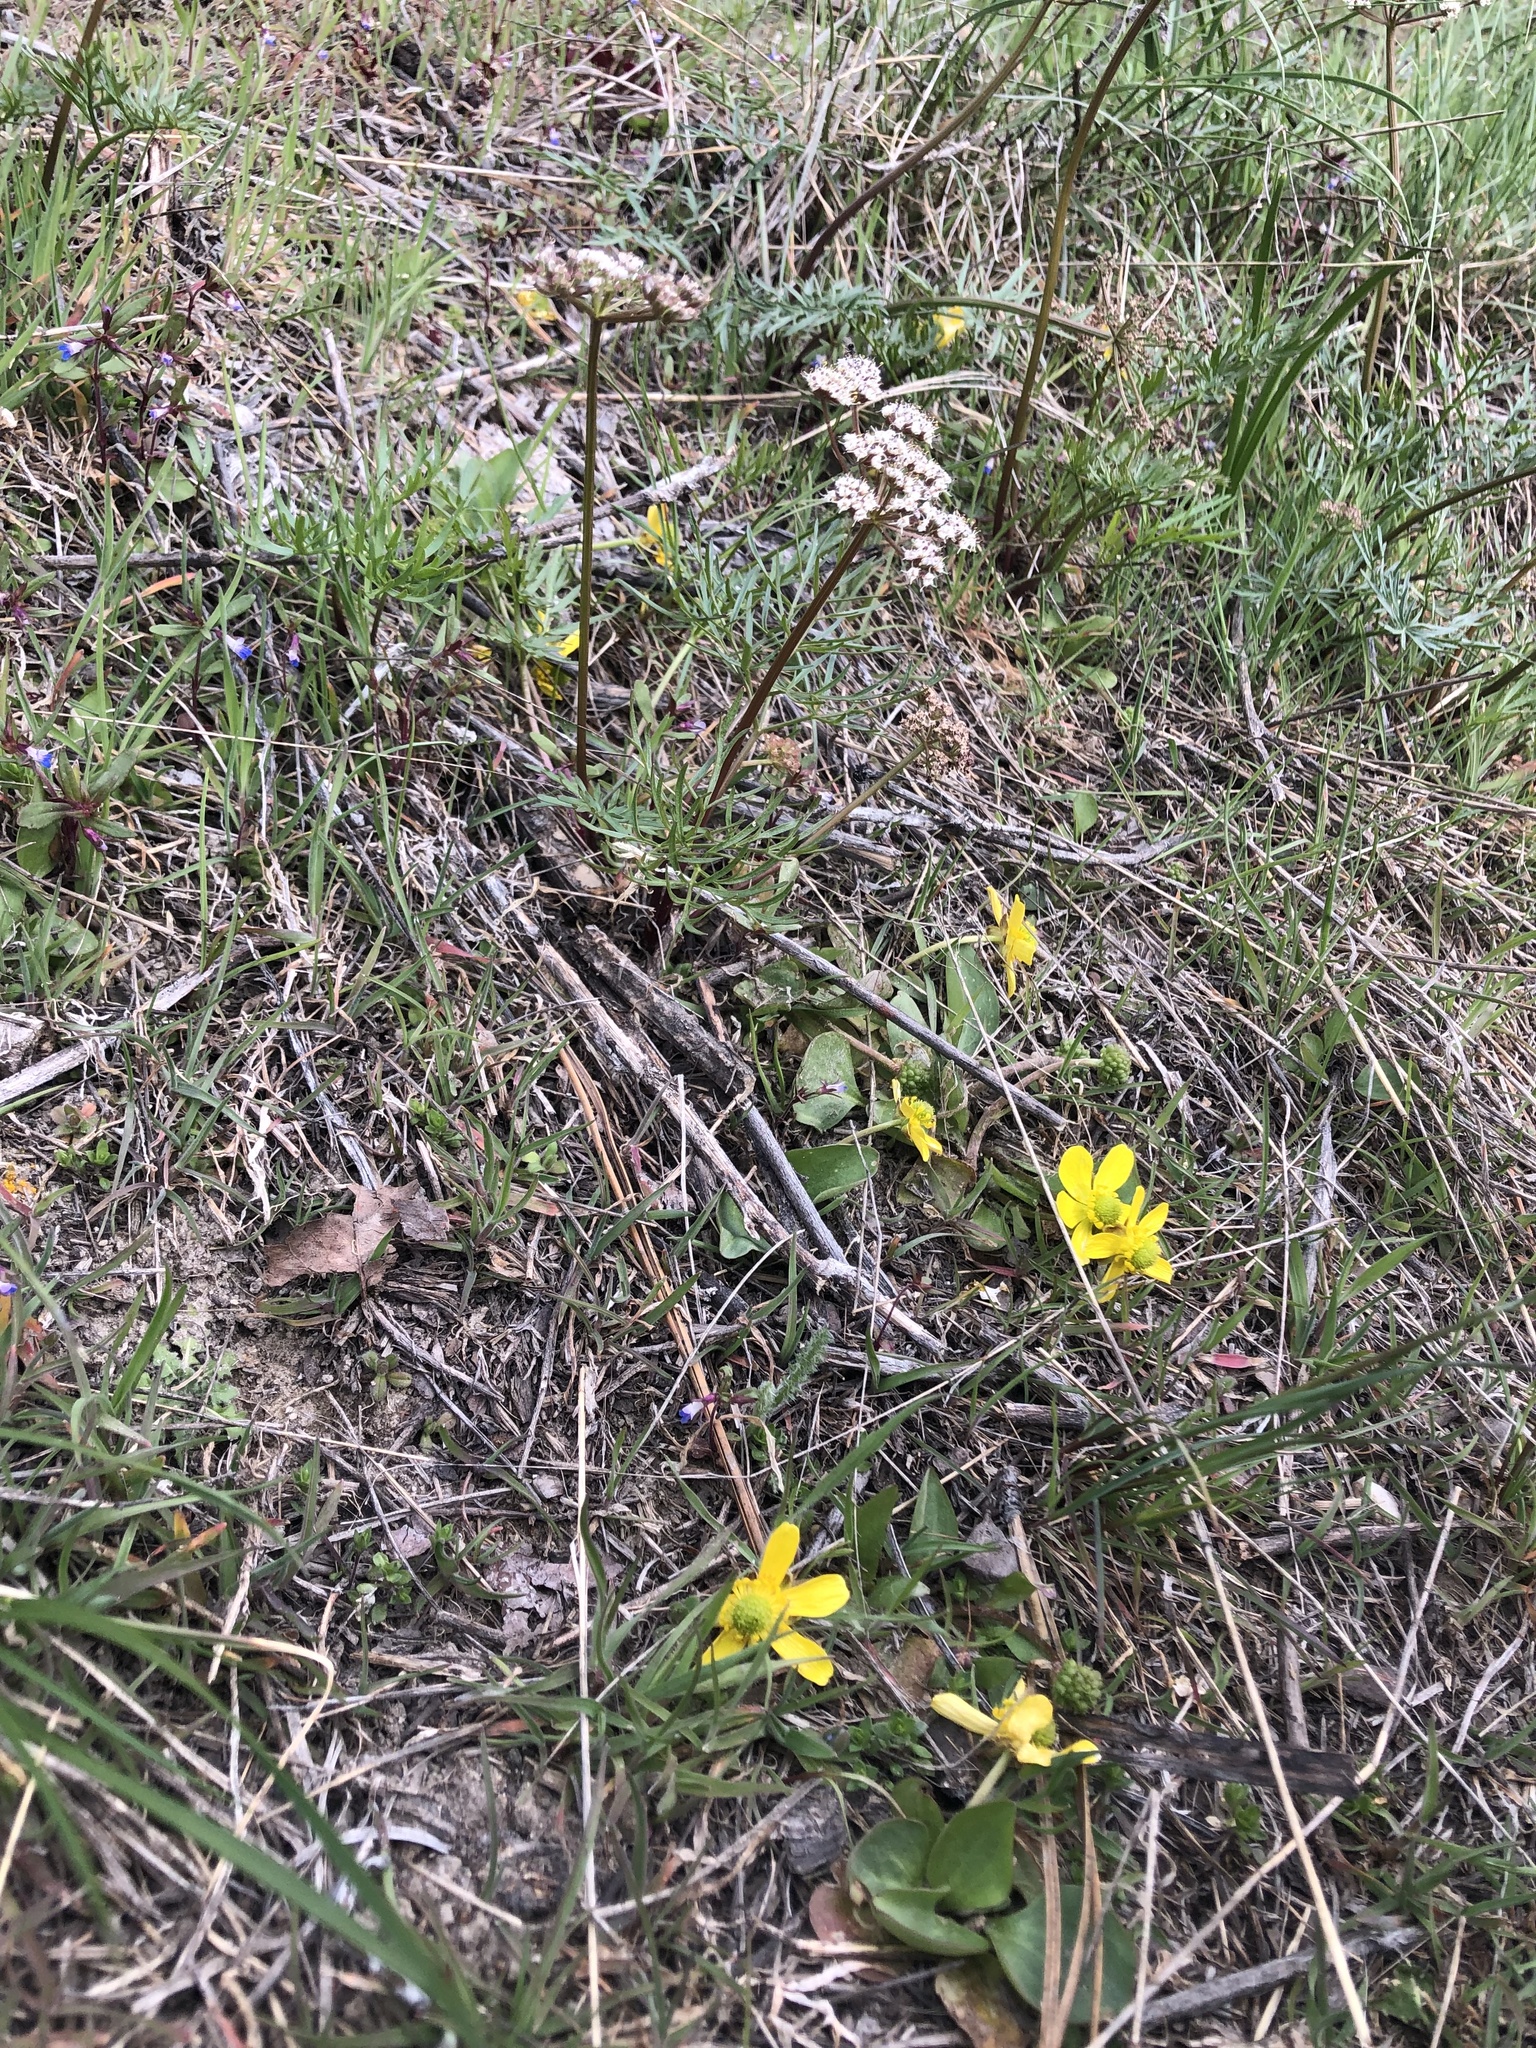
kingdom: Plantae
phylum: Tracheophyta
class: Magnoliopsida
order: Ranunculales
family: Ranunculaceae
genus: Ranunculus
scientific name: Ranunculus glaberrimus
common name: Sagebrush buttercup
